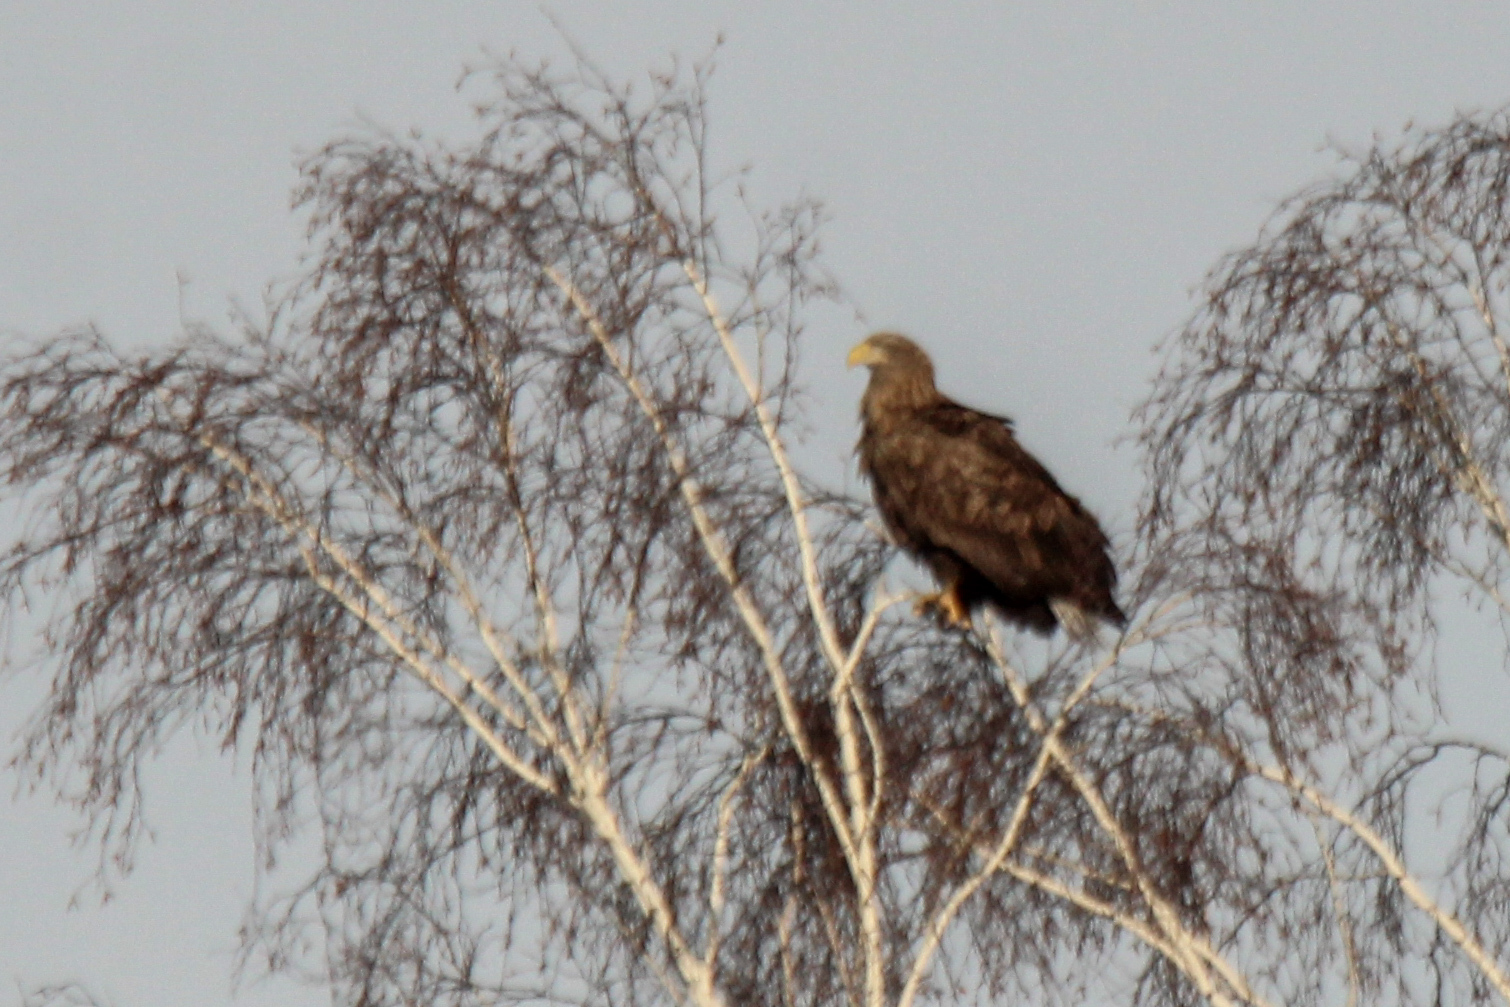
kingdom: Animalia
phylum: Chordata
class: Aves
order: Accipitriformes
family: Accipitridae
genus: Haliaeetus
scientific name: Haliaeetus albicilla
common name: White-tailed eagle
